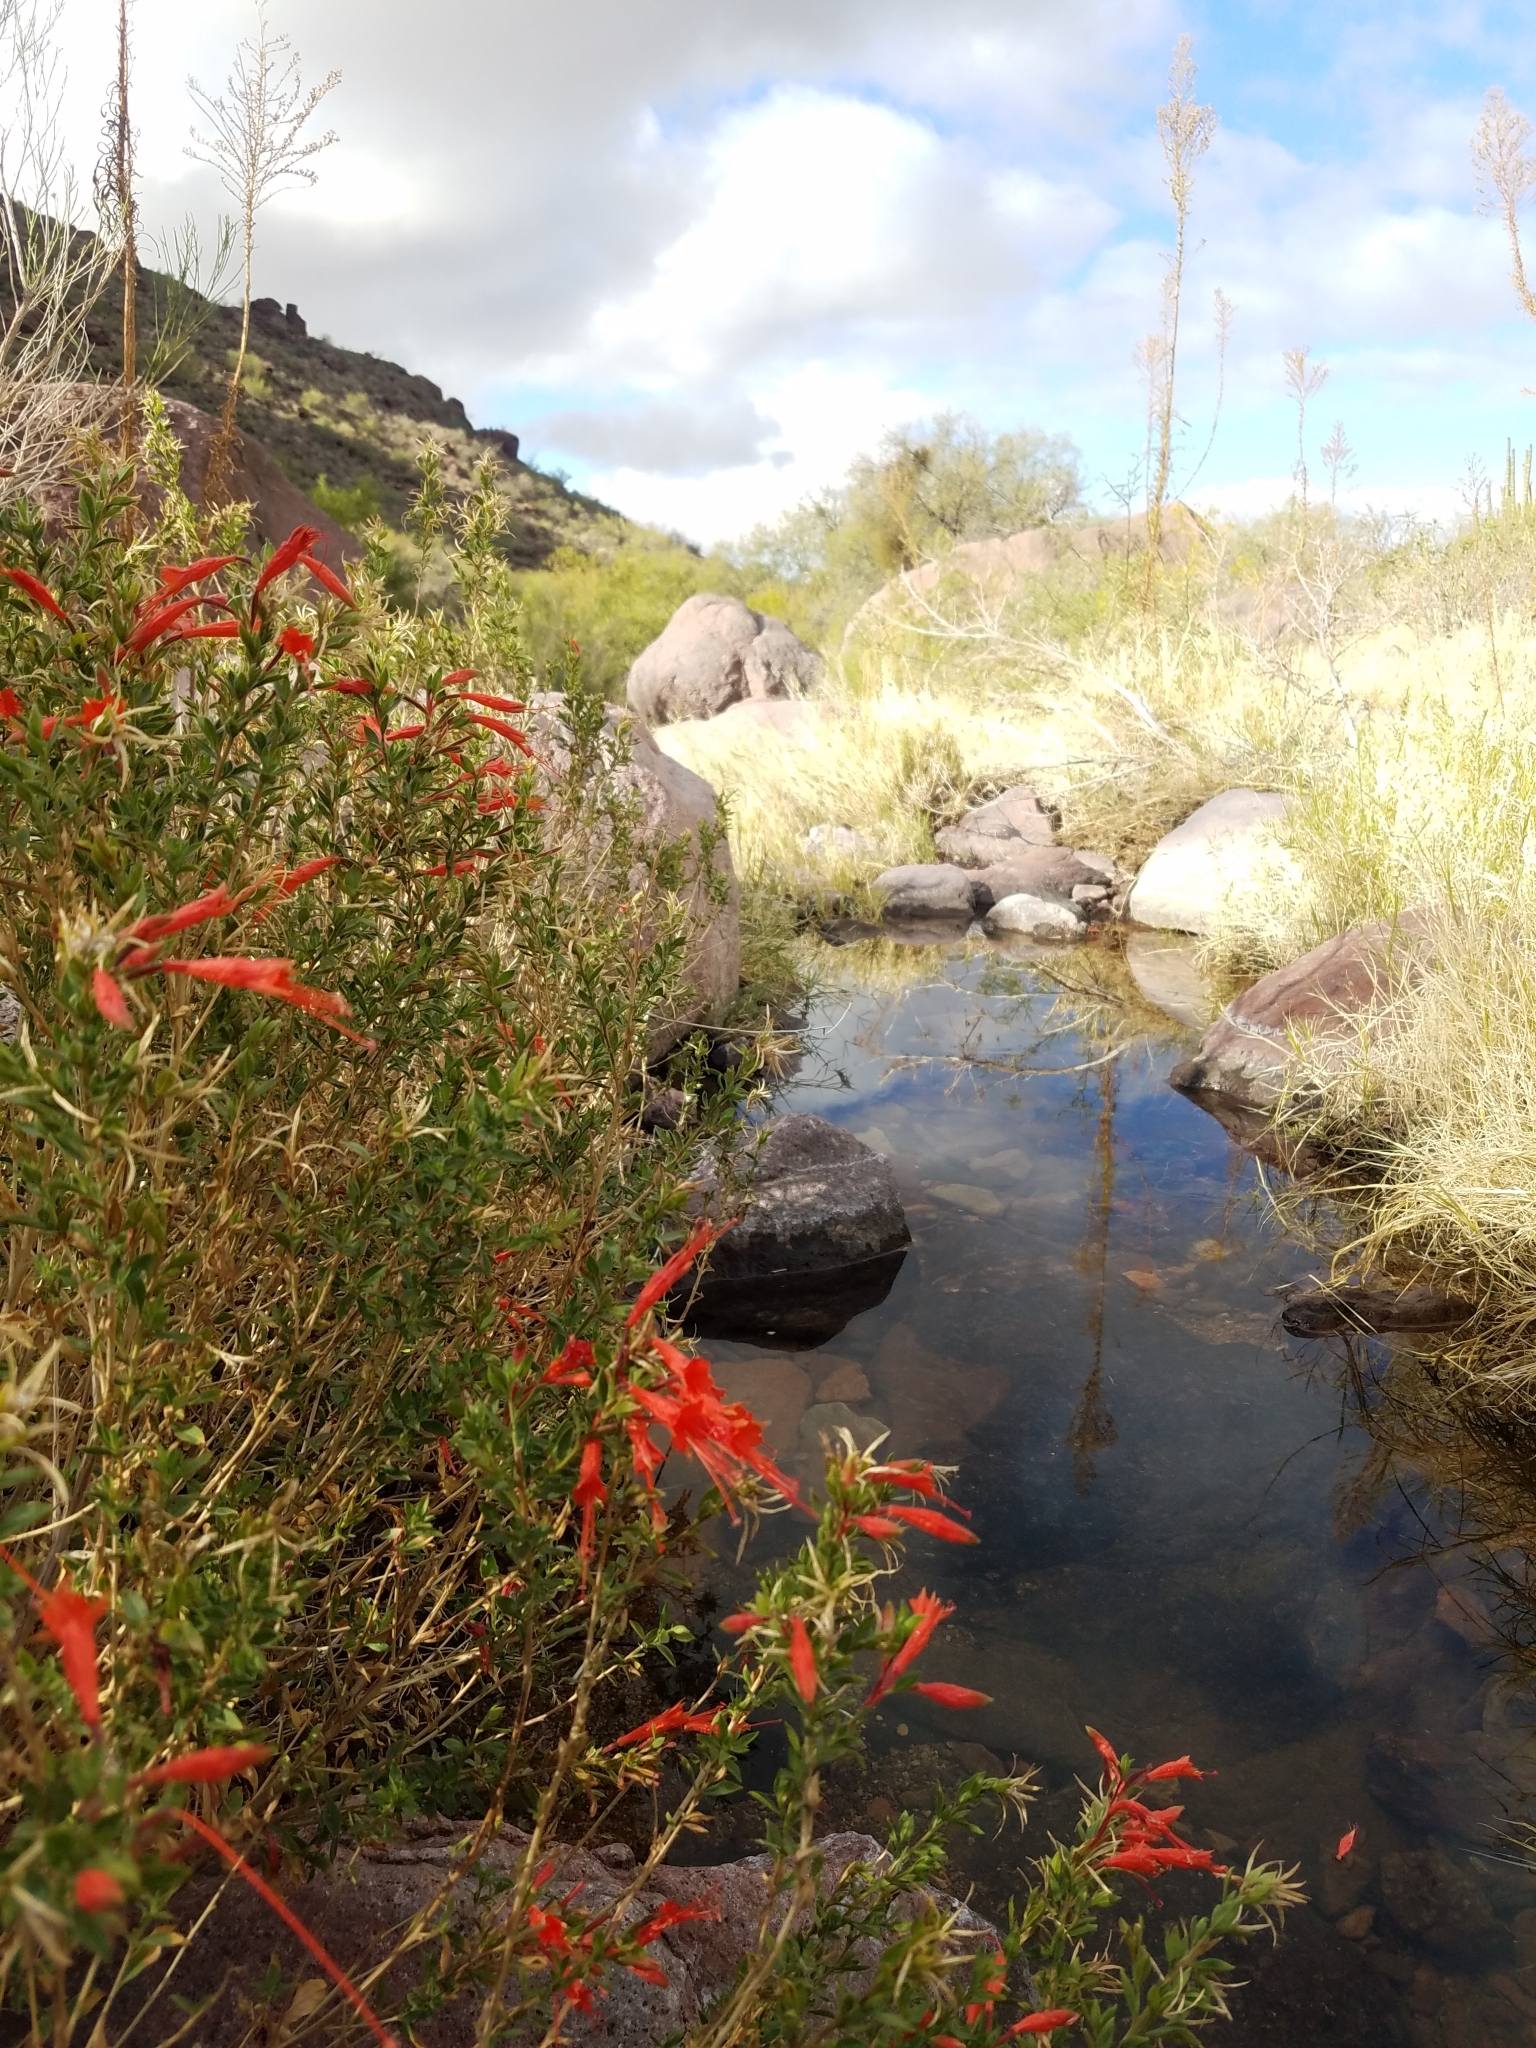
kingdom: Plantae
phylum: Tracheophyta
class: Magnoliopsida
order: Myrtales
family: Onagraceae
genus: Epilobium
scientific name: Epilobium canum
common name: California-fuchsia
